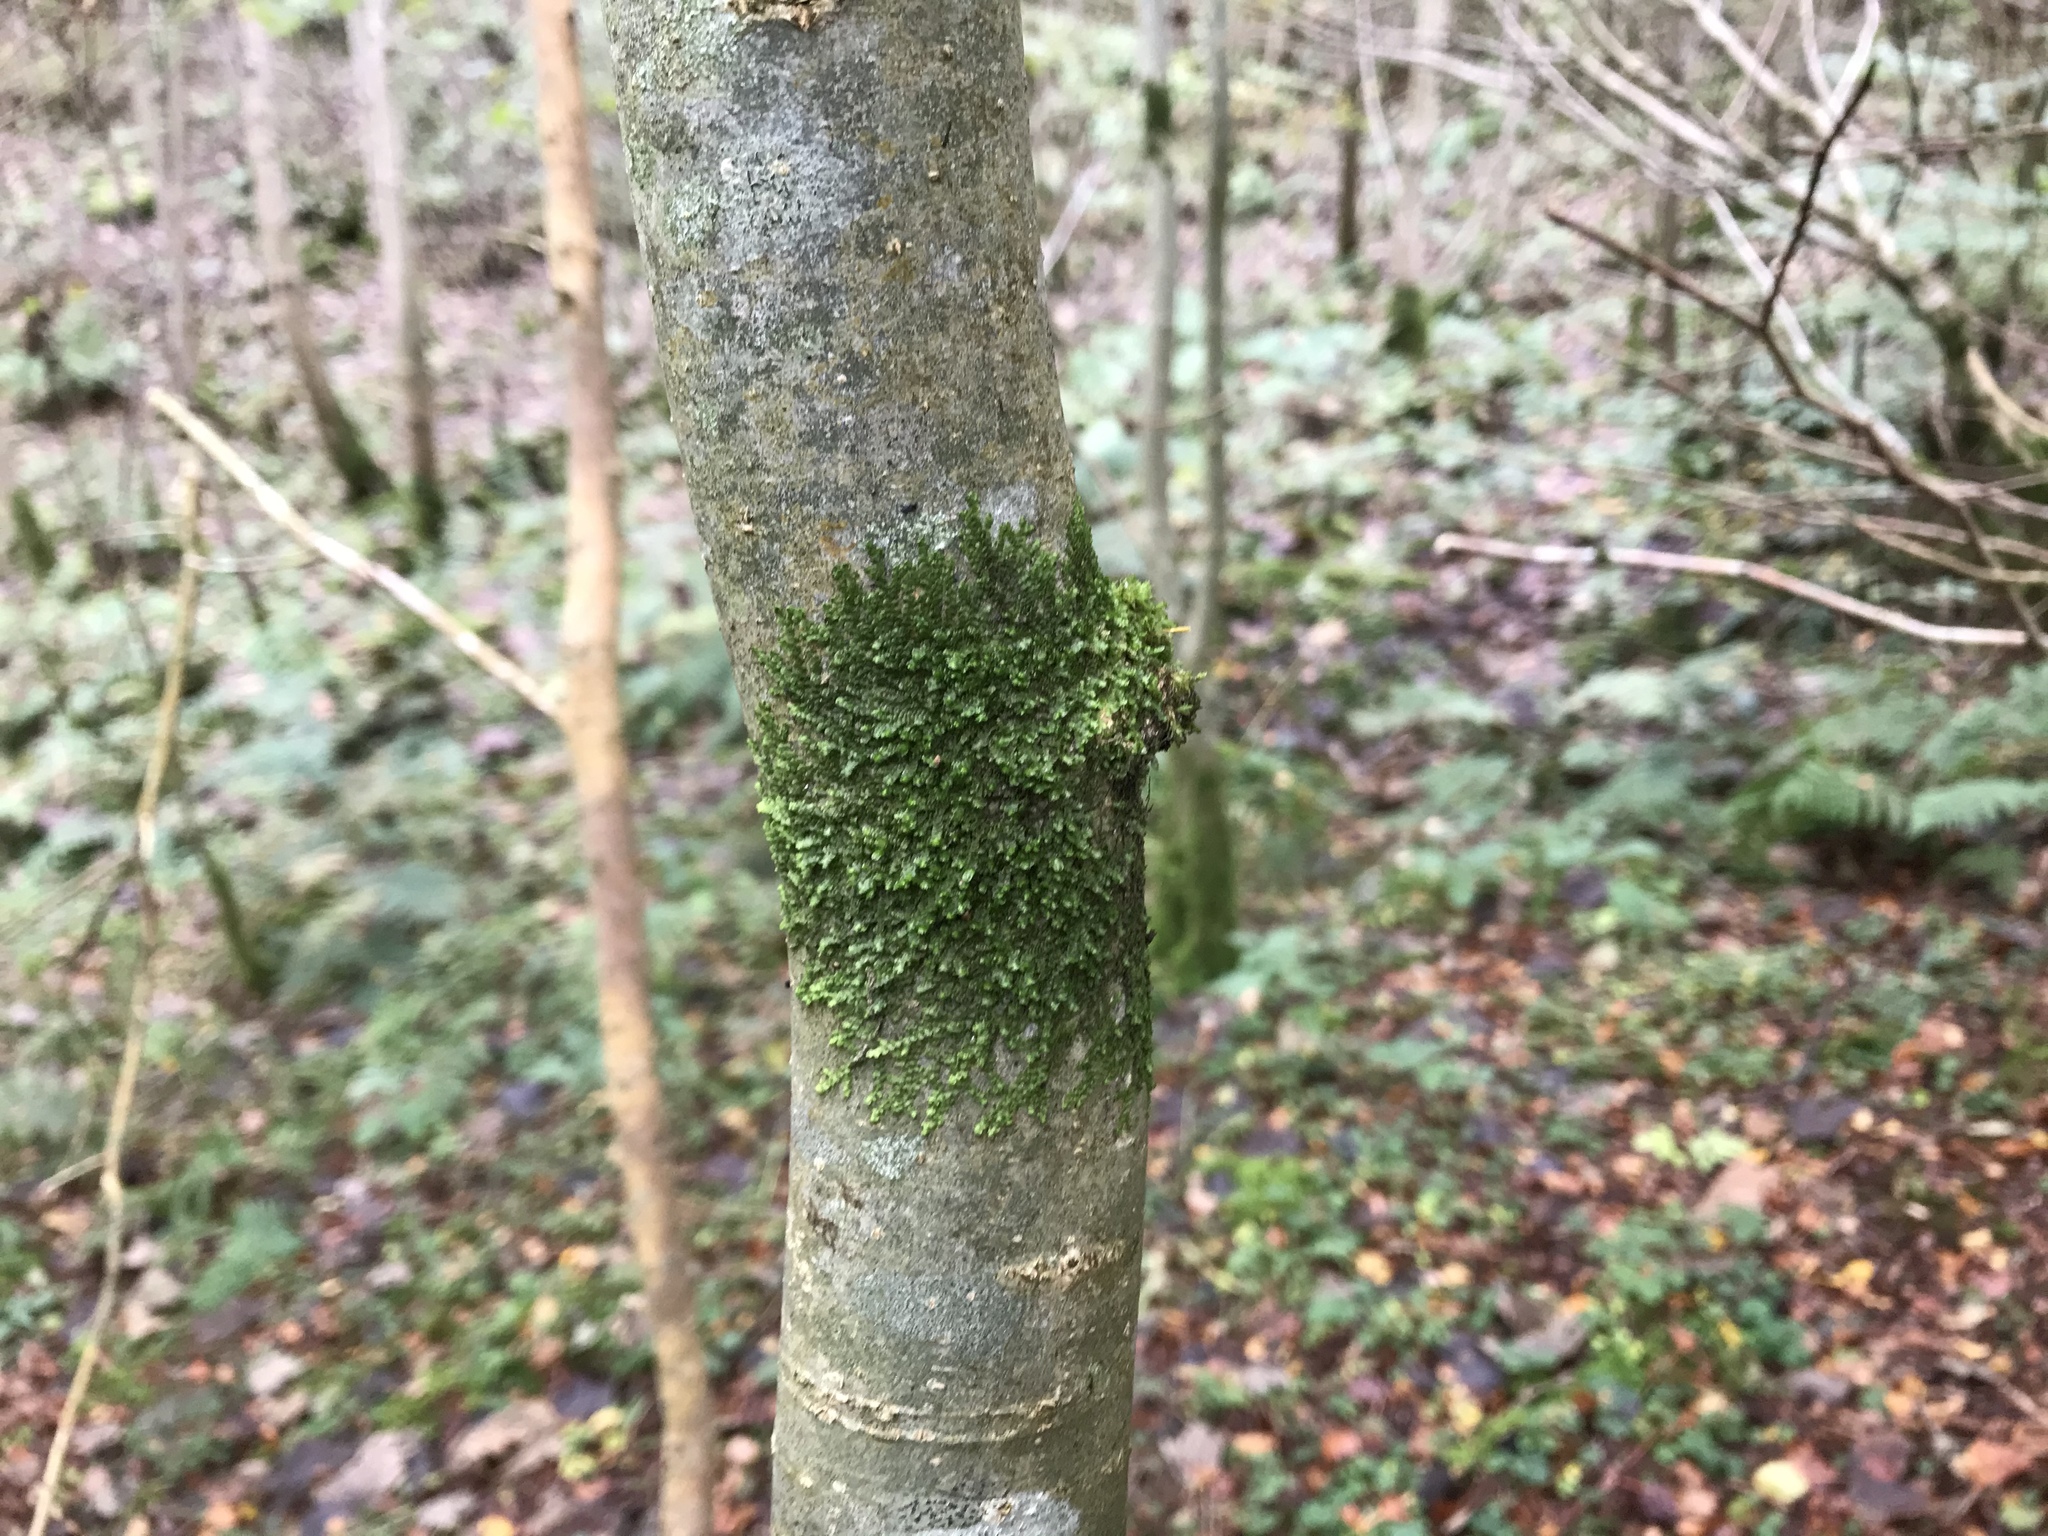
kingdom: Plantae
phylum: Marchantiophyta
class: Jungermanniopsida
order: Porellales
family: Frullaniaceae
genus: Frullania
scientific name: Frullania dilatata
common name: Dilated scalewort
